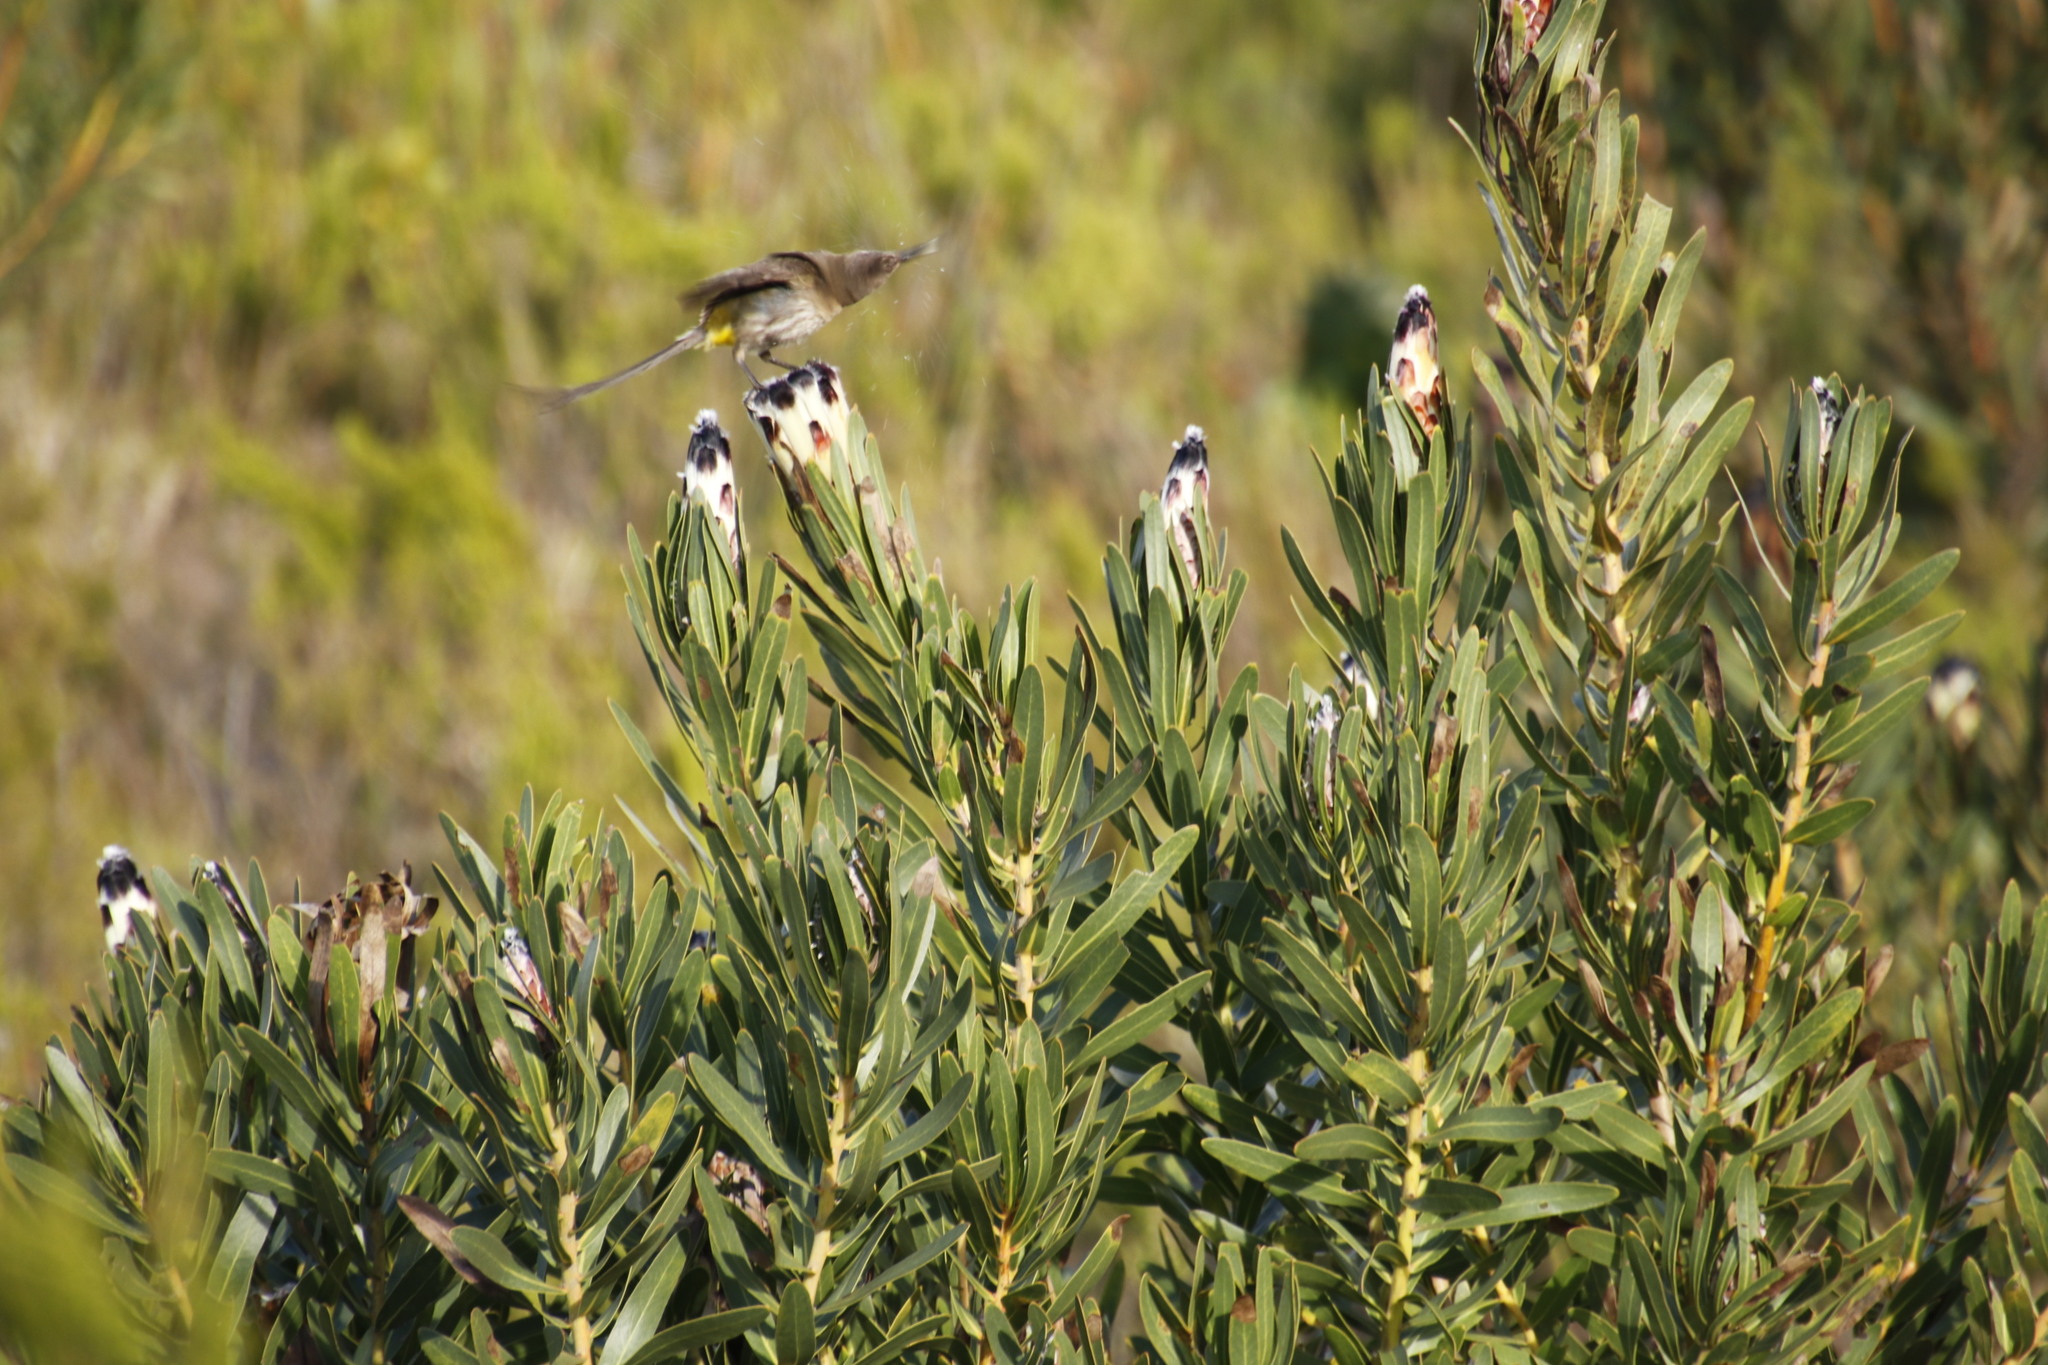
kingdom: Animalia
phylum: Chordata
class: Aves
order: Passeriformes
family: Promeropidae
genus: Promerops
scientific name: Promerops cafer
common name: Cape sugarbird
